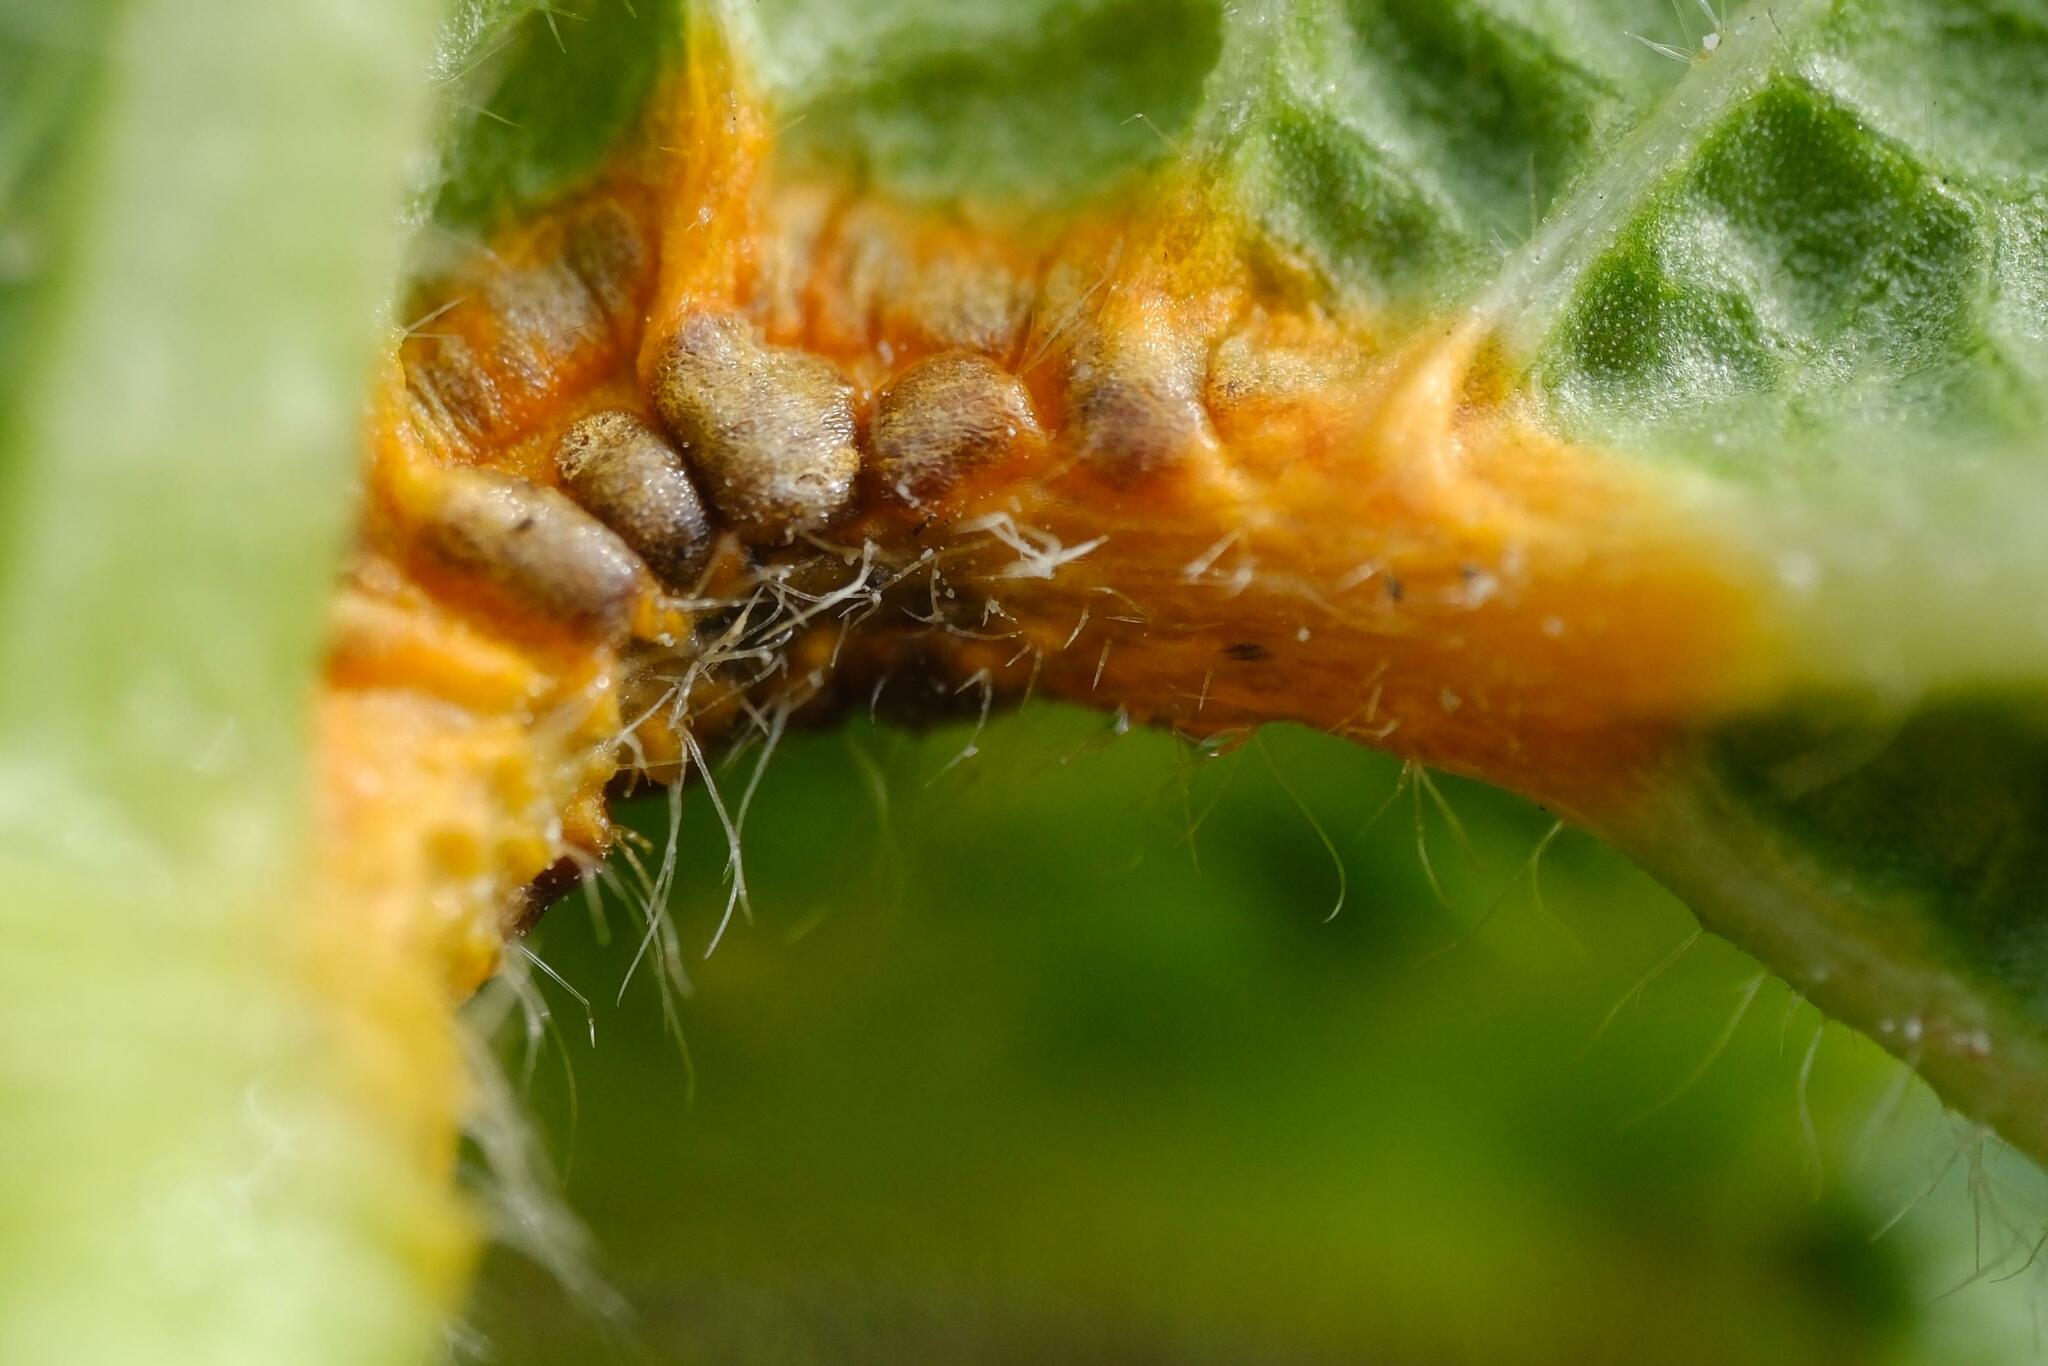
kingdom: Fungi
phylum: Basidiomycota
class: Pucciniomycetes
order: Pucciniales
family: Pucciniaceae
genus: Puccinia
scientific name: Puccinia malvacearum
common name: Hollyhock rust
